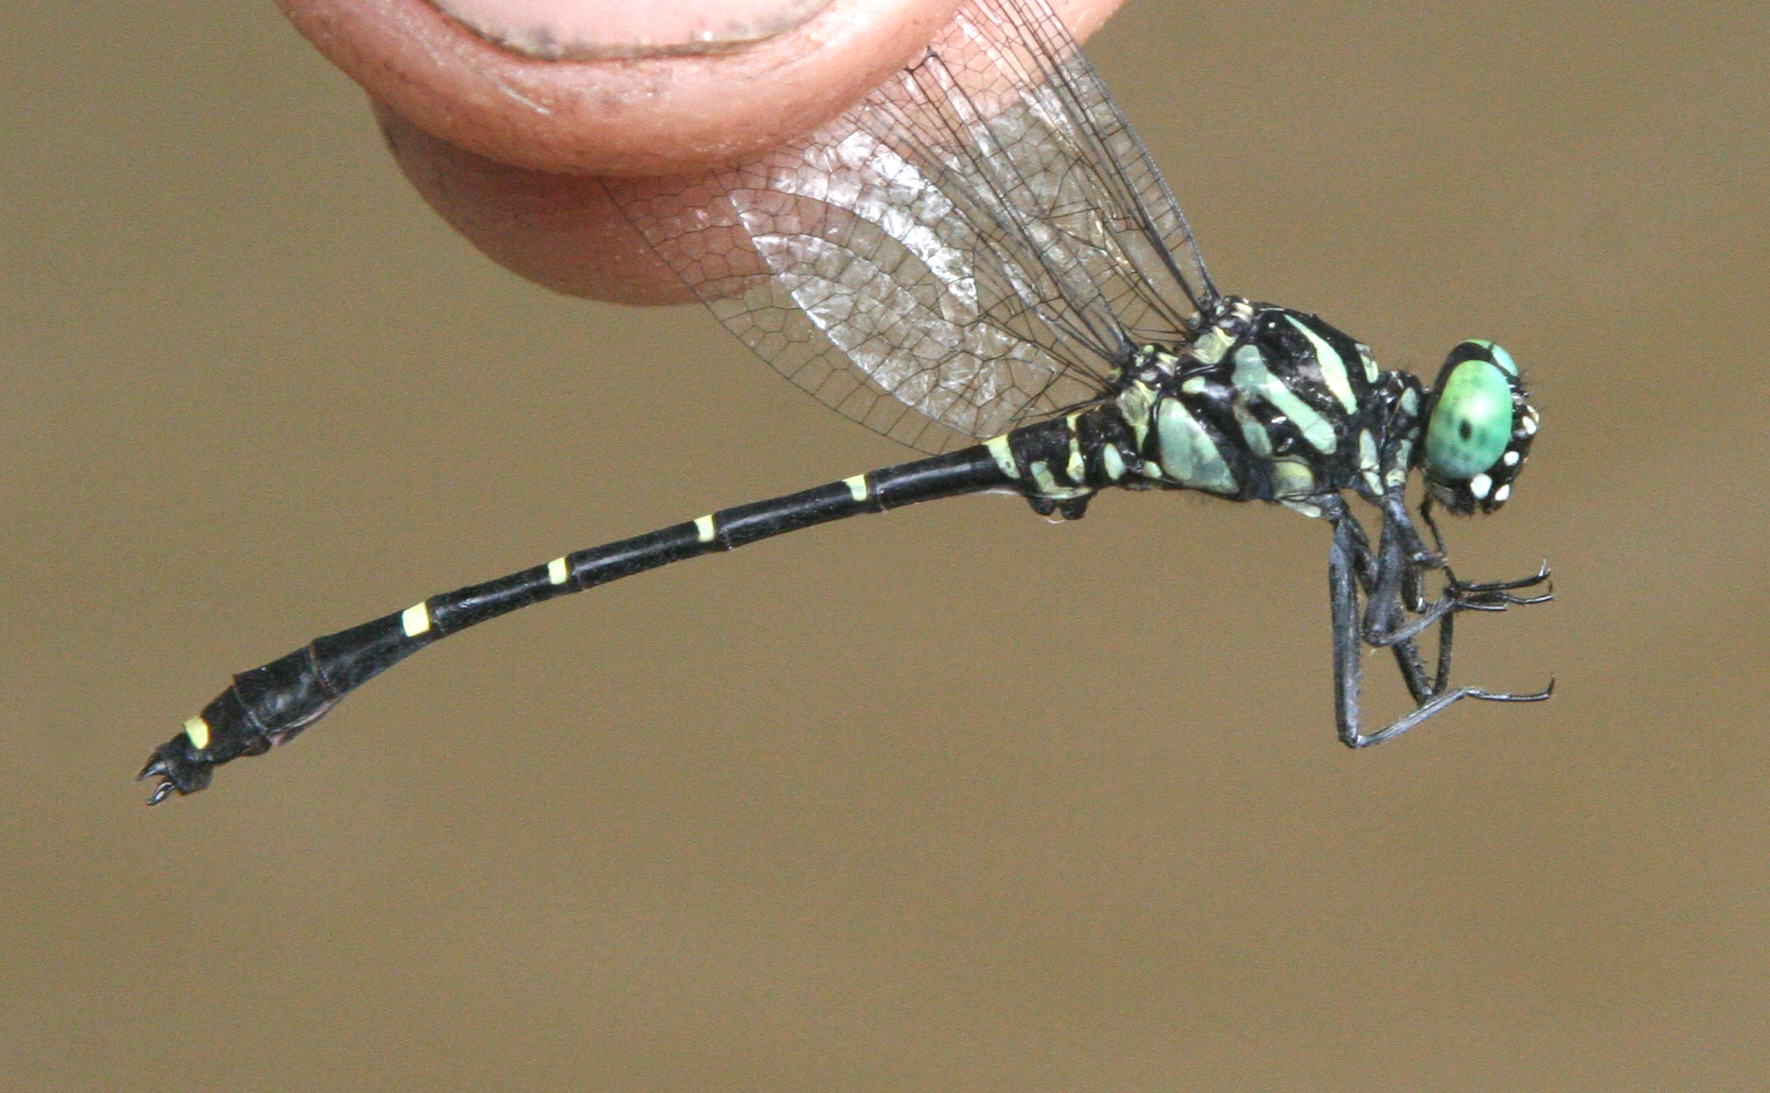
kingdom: Animalia
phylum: Arthropoda
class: Insecta
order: Odonata
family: Gomphidae
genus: Burmagomphus
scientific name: Burmagomphus williamsoni
